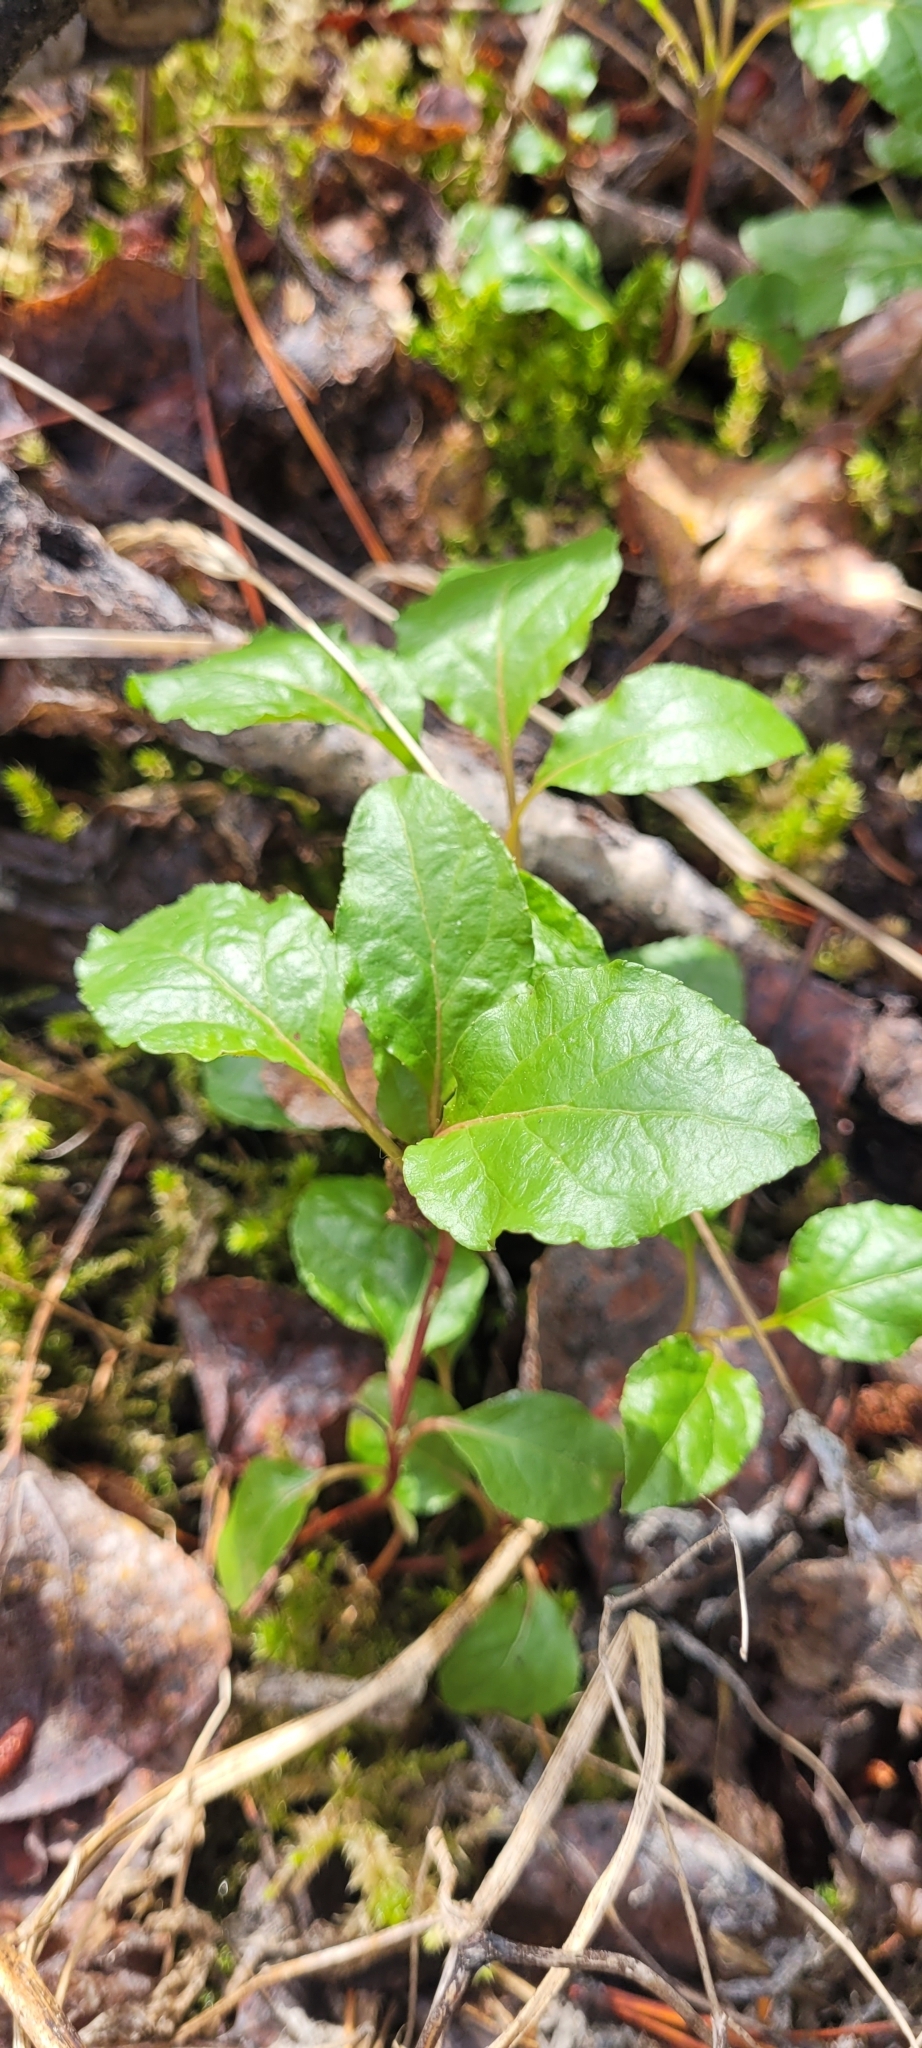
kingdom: Plantae
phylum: Tracheophyta
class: Magnoliopsida
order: Ericales
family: Ericaceae
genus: Orthilia
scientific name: Orthilia secunda
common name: One-sided orthilia
